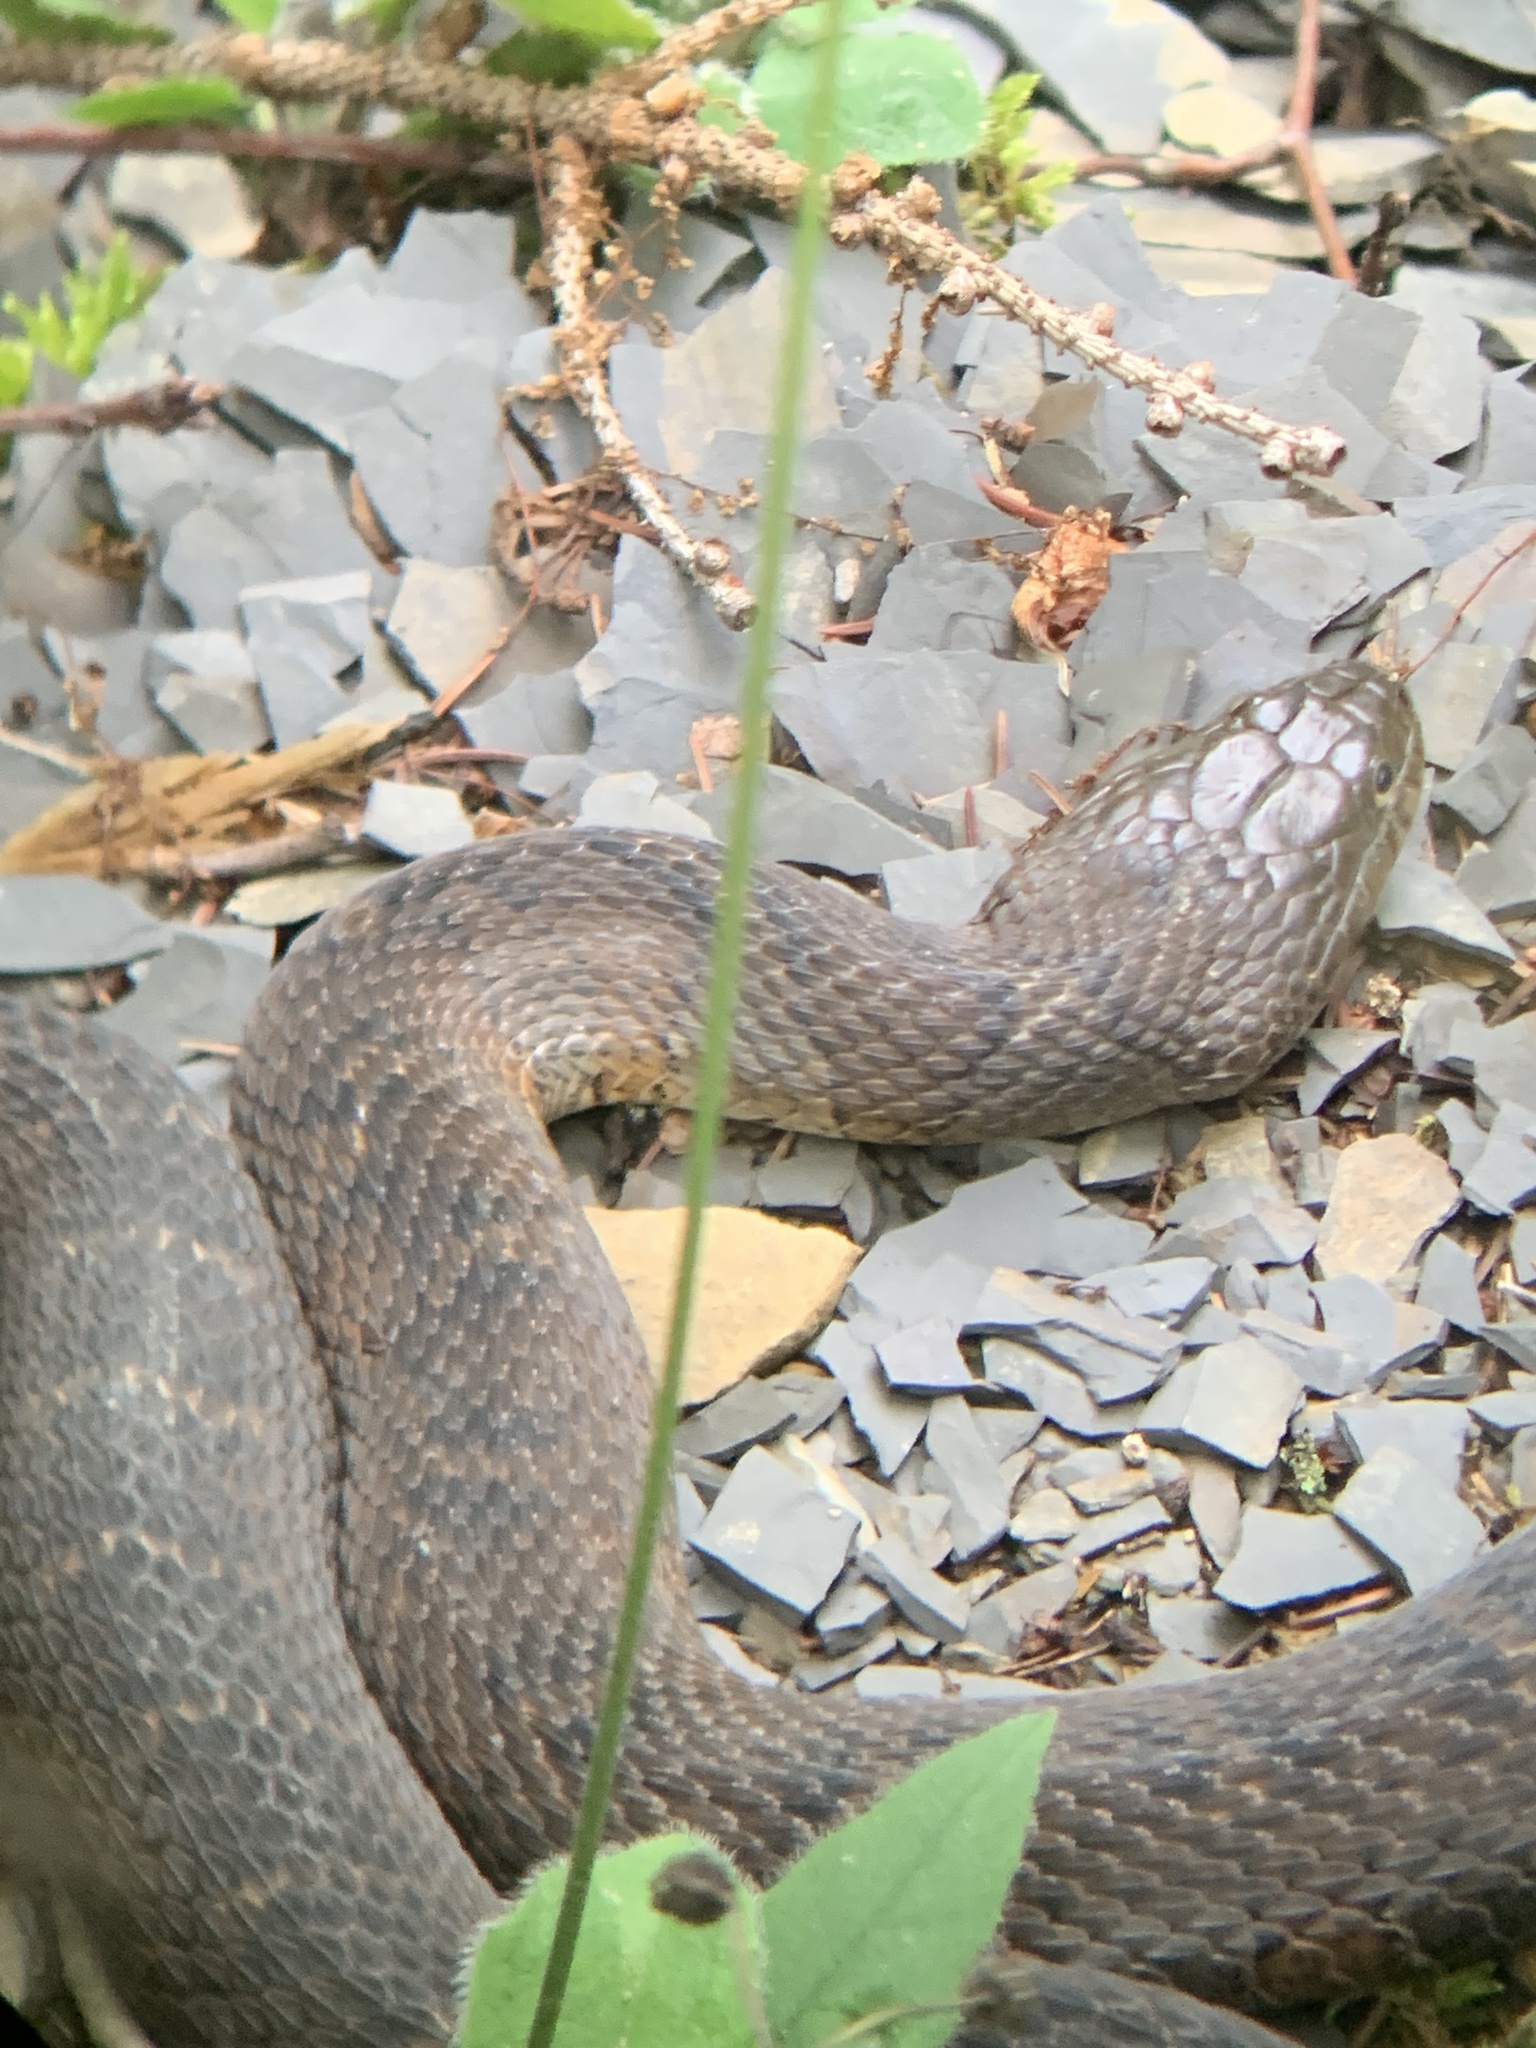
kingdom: Animalia
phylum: Chordata
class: Squamata
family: Colubridae
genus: Nerodia
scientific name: Nerodia sipedon
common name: Northern water snake
